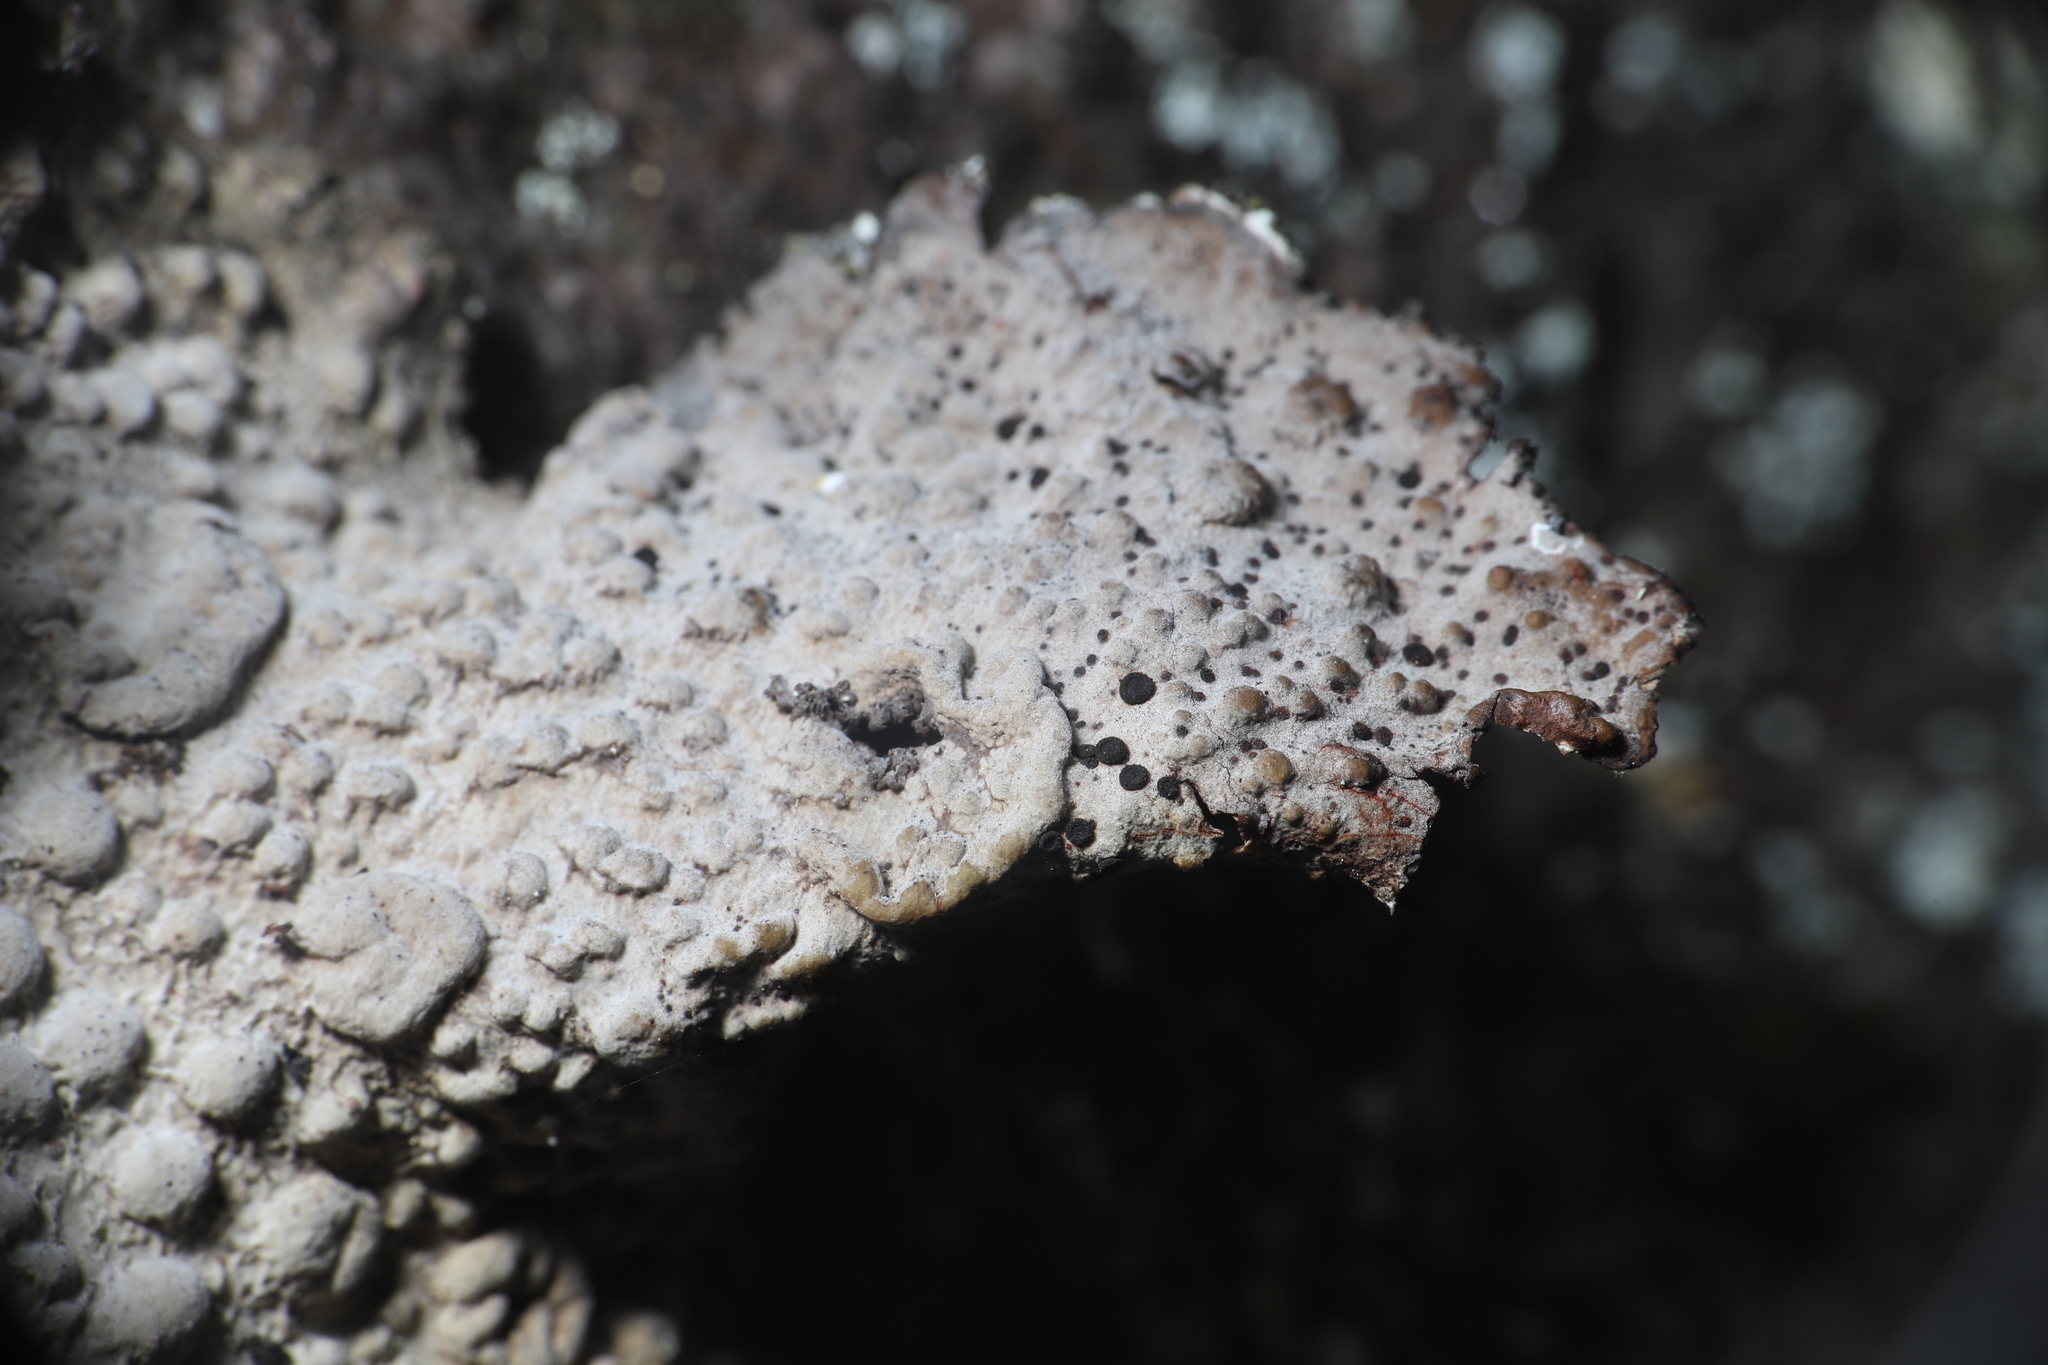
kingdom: Fungi
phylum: Ascomycota
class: Lecanoromycetes
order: Umbilicariales
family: Umbilicariaceae
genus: Lasallia
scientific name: Lasallia papulosa
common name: Common toadskin lichen
